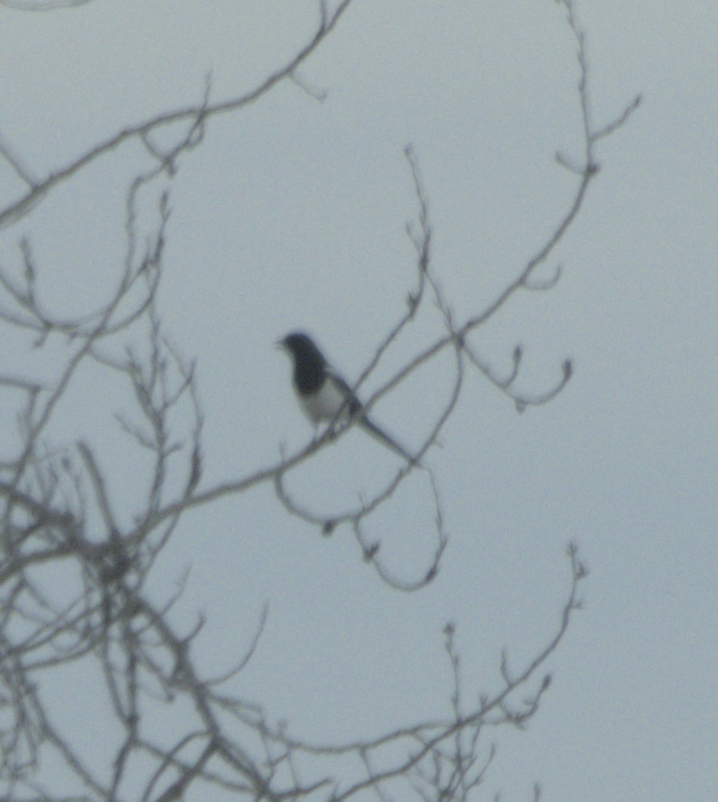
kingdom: Animalia
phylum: Chordata
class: Aves
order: Passeriformes
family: Corvidae
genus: Pica
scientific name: Pica hudsonia
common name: Black-billed magpie
